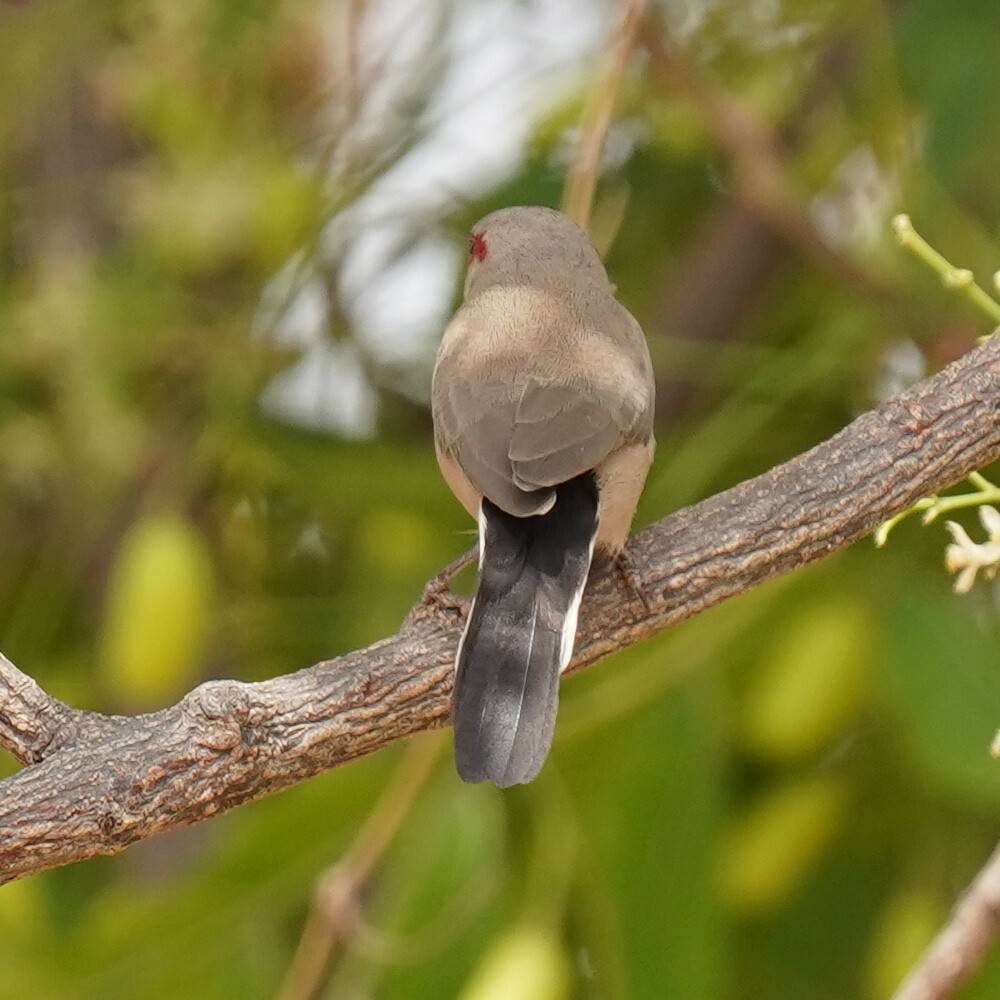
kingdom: Animalia
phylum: Chordata
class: Aves
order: Passeriformes
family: Estrildidae
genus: Estrilda
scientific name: Estrilda troglodytes
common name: Black-rumped waxbill
